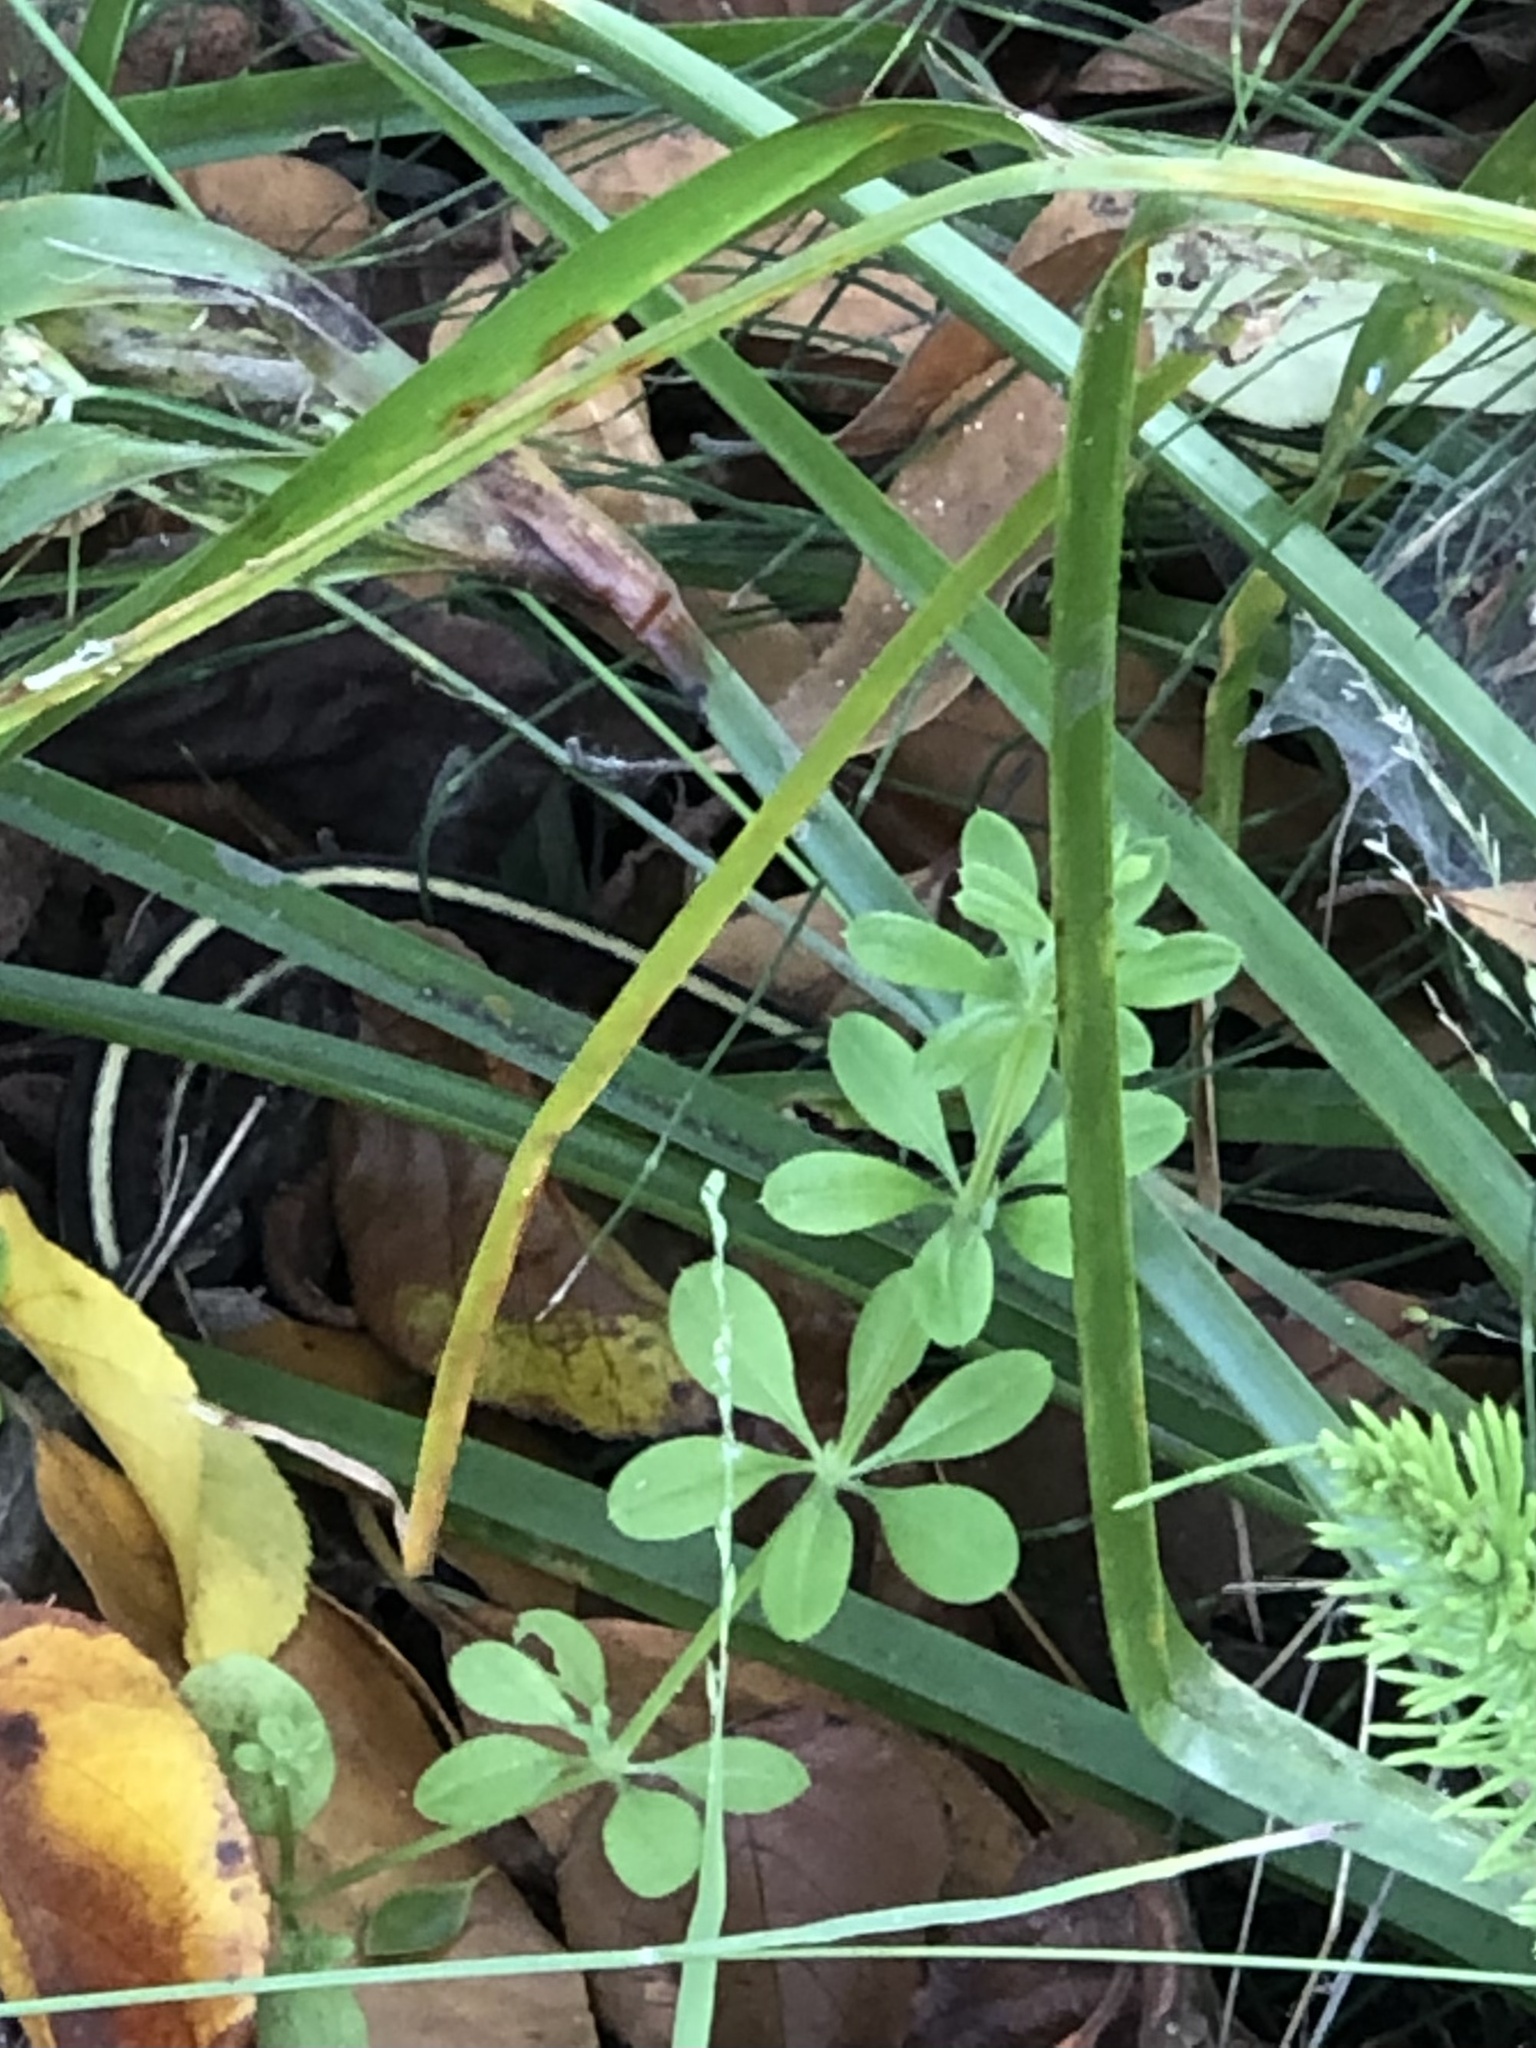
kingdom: Animalia
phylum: Chordata
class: Squamata
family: Colubridae
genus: Thamnophis
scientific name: Thamnophis elegans
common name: Western terrestrial garter snake
